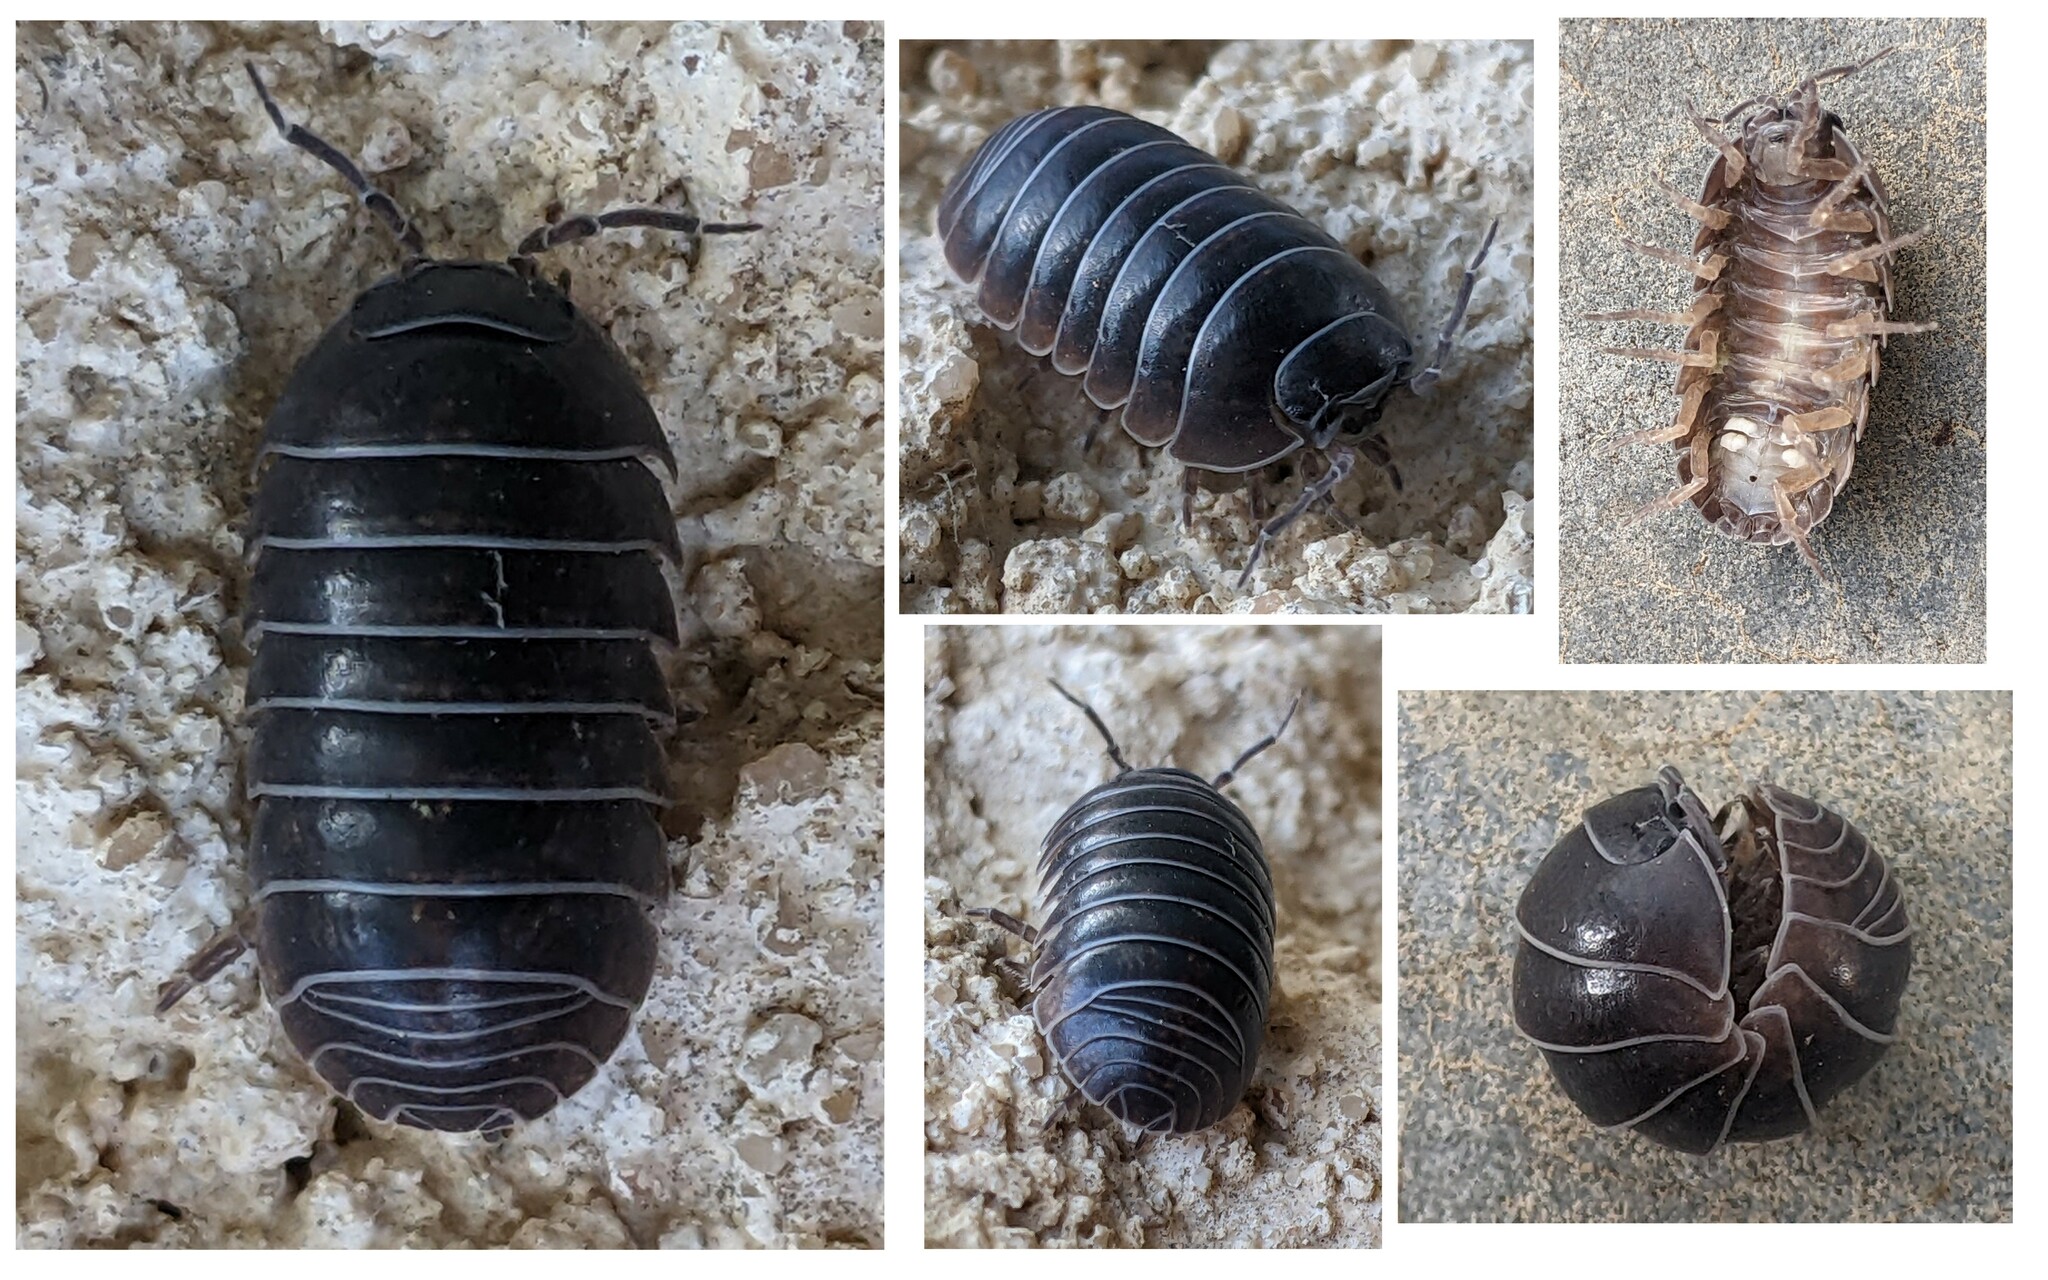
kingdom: Animalia
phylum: Arthropoda
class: Malacostraca
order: Isopoda
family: Armadillidiidae
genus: Armadillidium
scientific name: Armadillidium vulgare
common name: Common pill woodlouse
